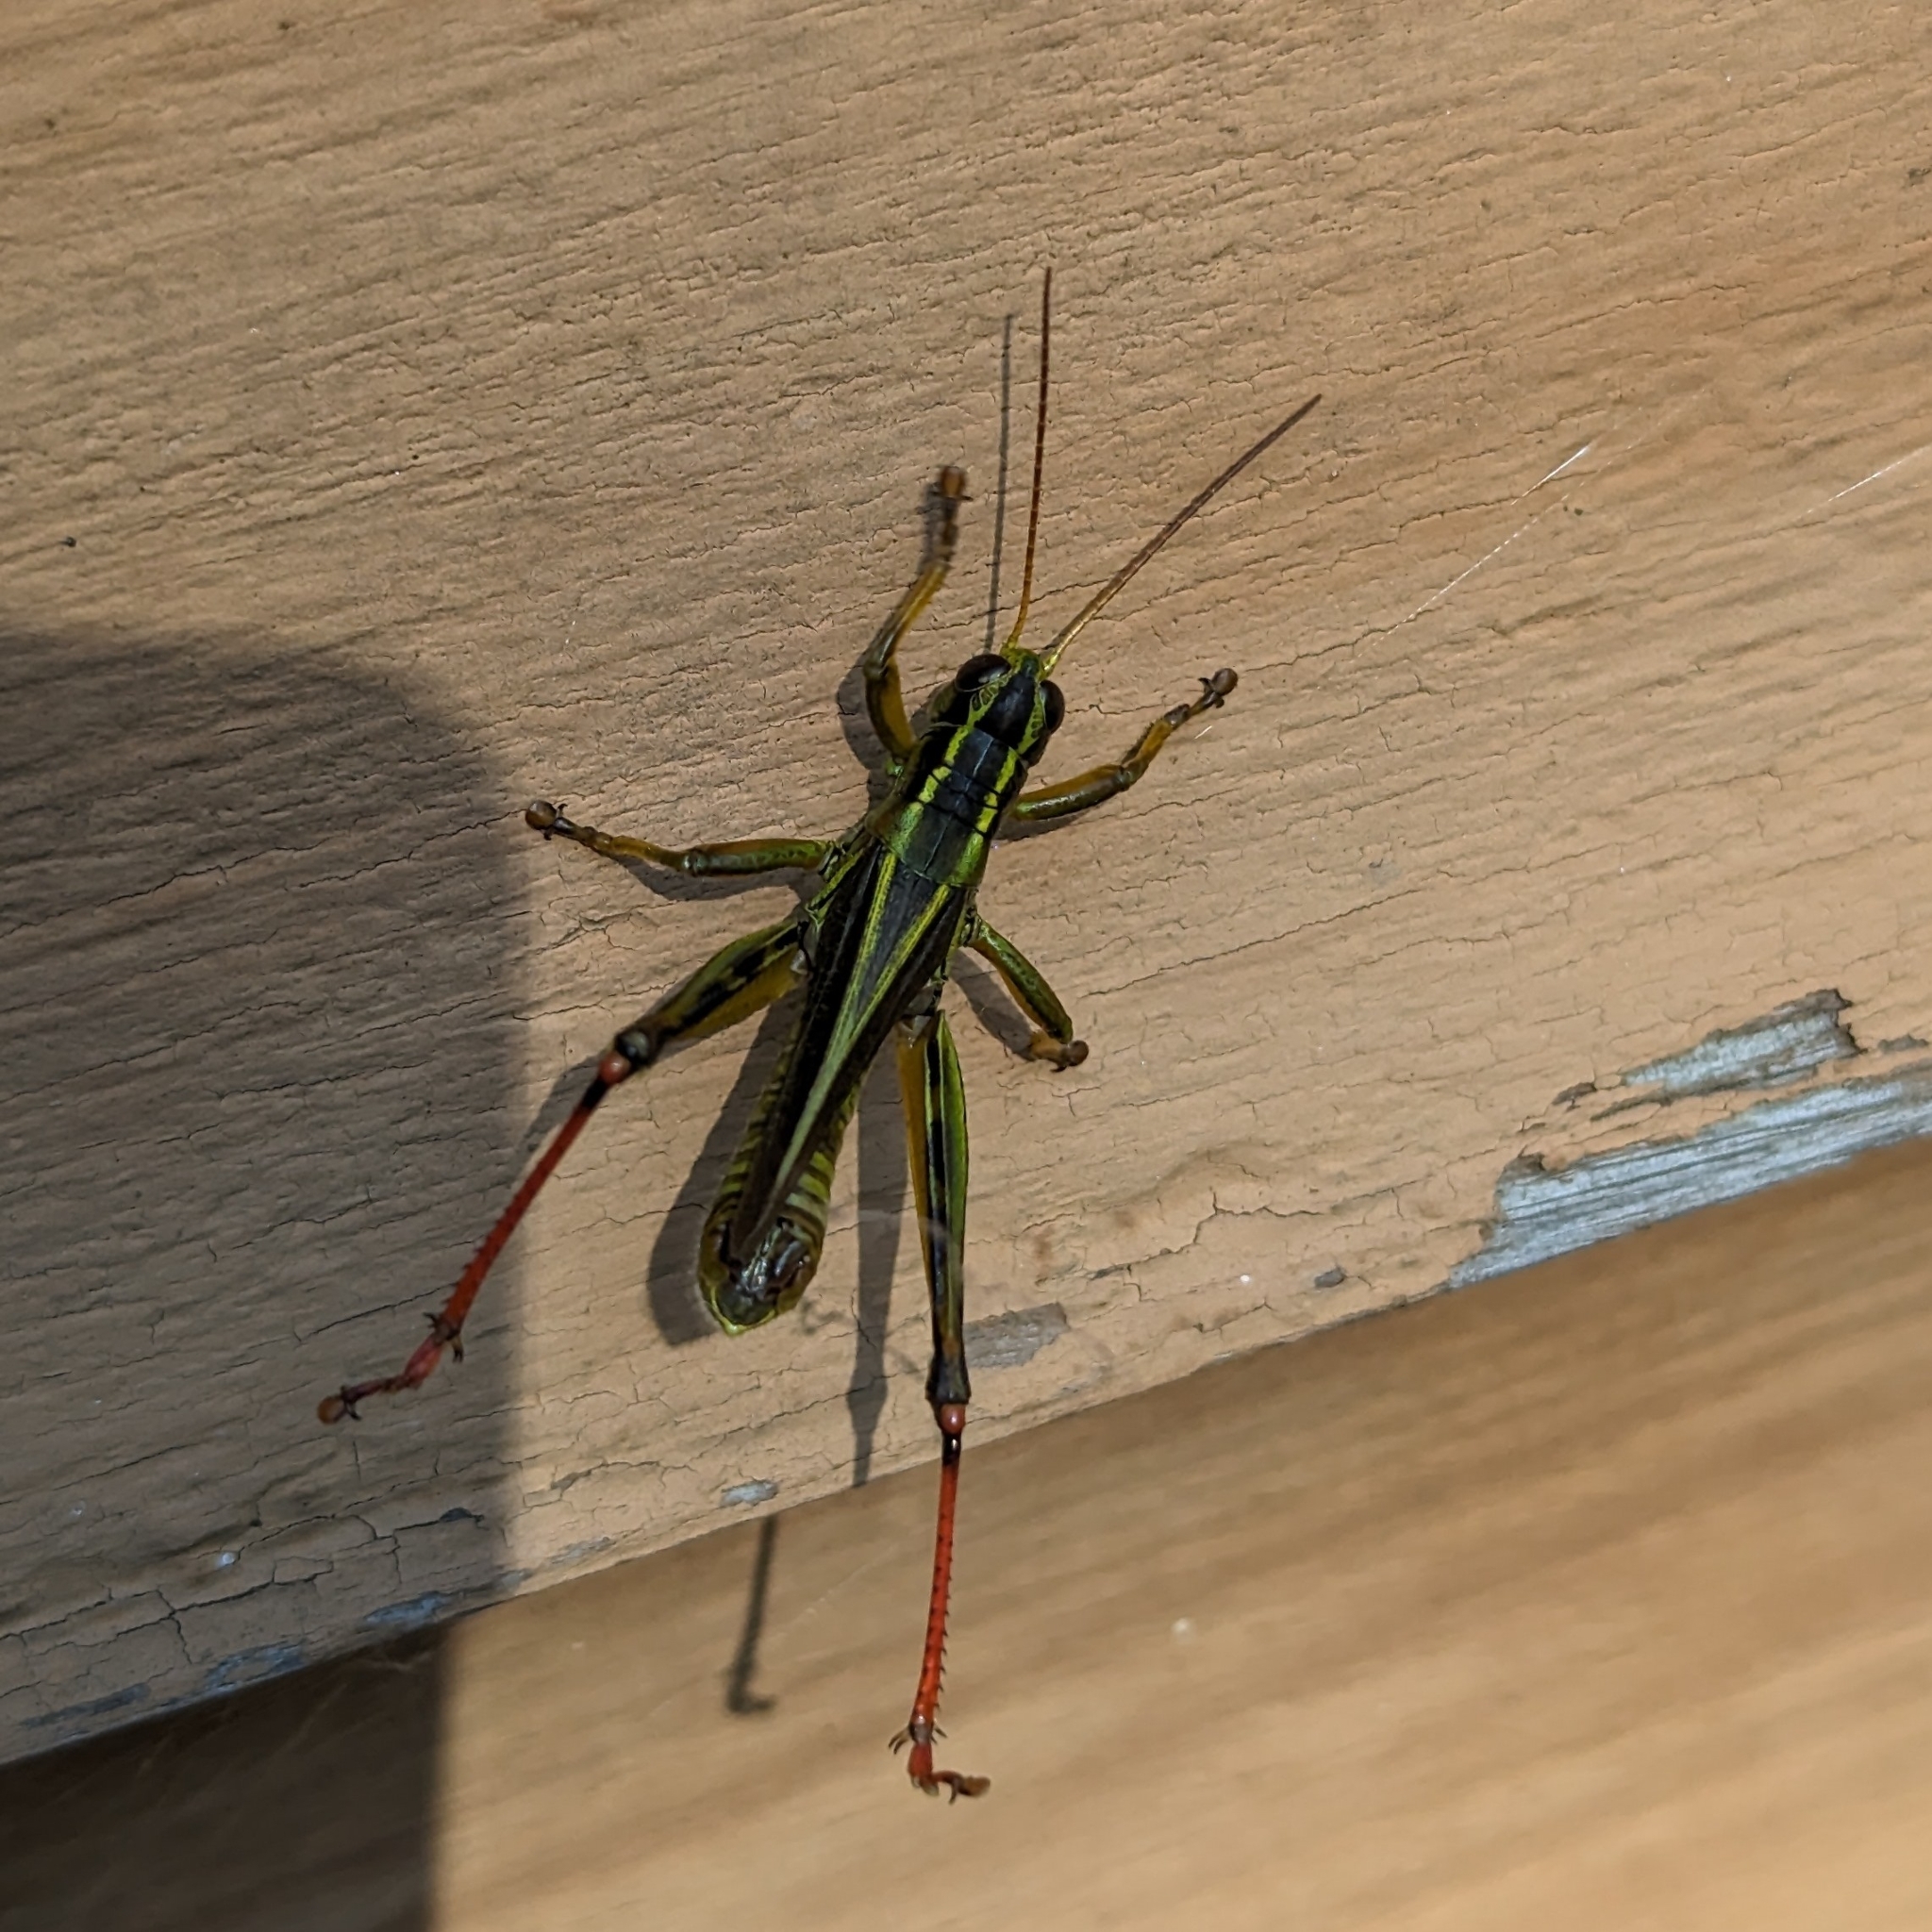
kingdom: Animalia
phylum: Arthropoda
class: Insecta
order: Orthoptera
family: Acrididae
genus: Melanoplus
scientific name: Melanoplus bivittatus
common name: Two-striped grasshopper
